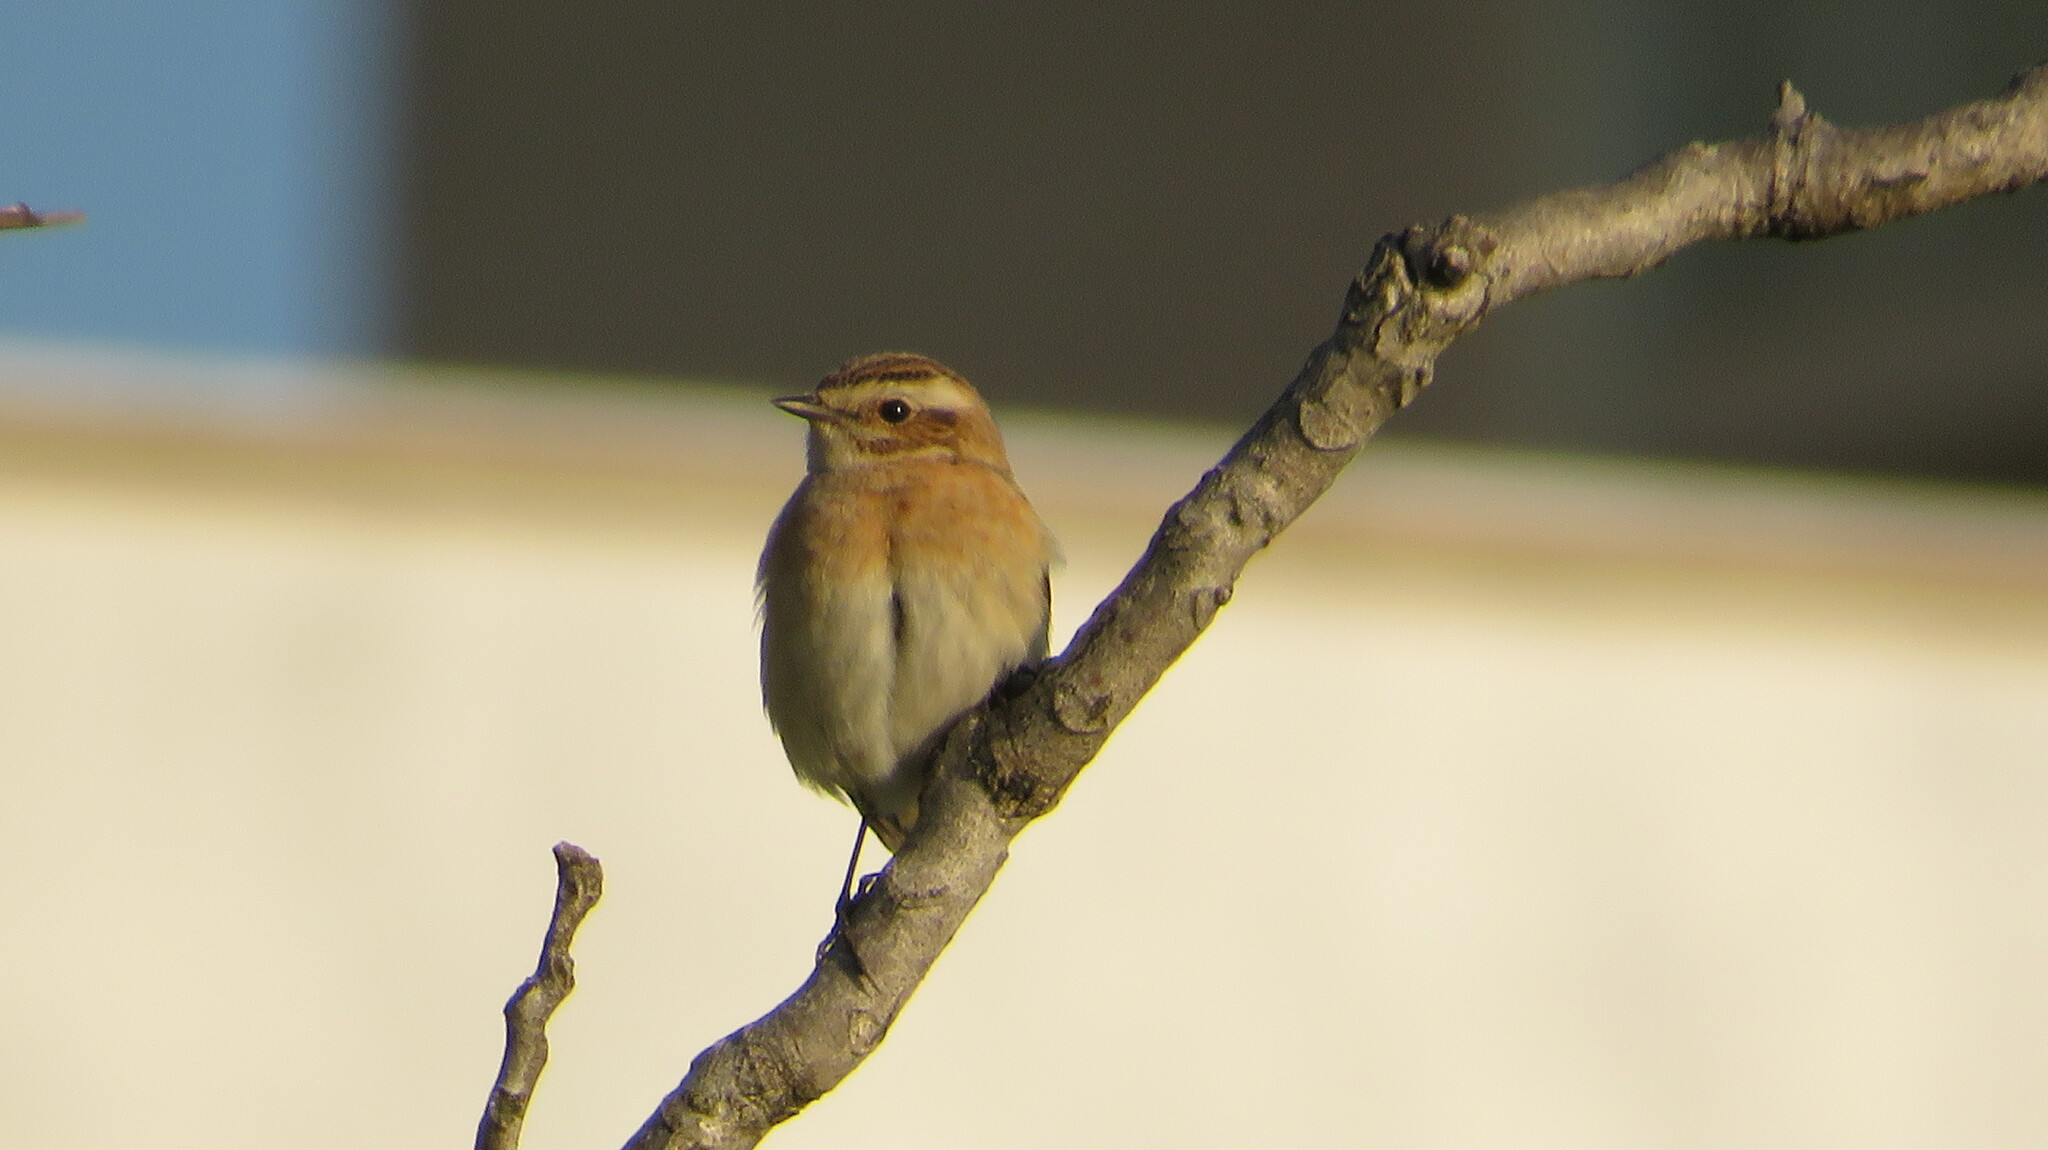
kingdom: Animalia
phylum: Chordata
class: Aves
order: Passeriformes
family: Muscicapidae
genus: Saxicola
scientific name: Saxicola rubetra
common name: Whinchat
